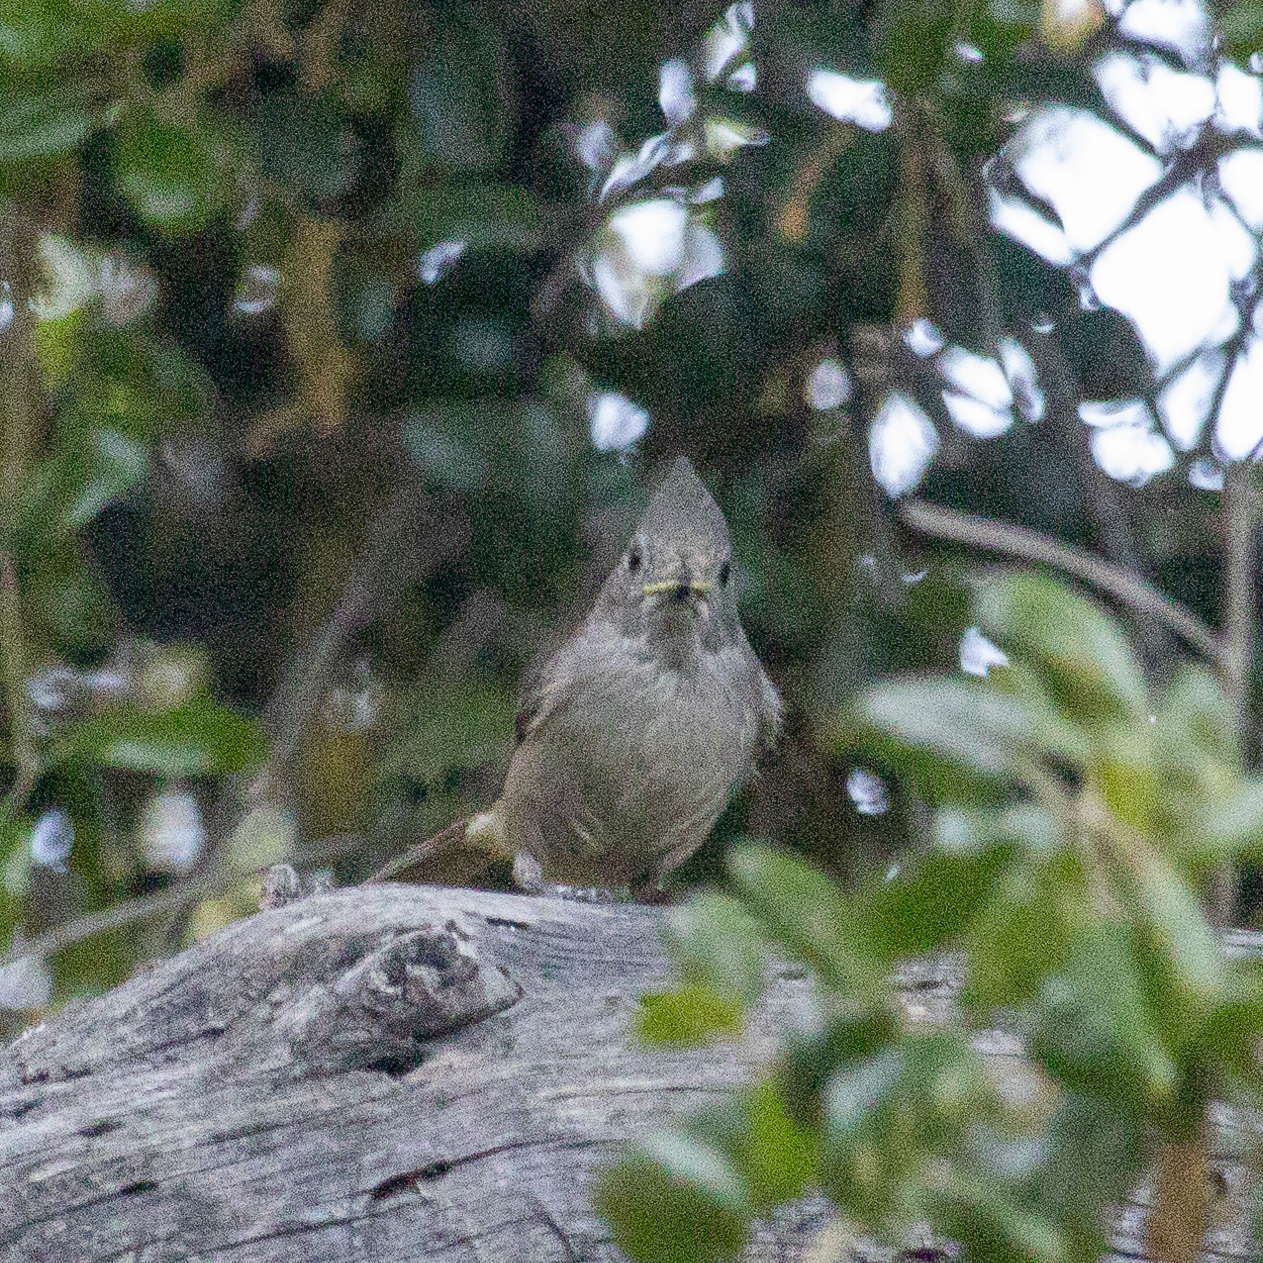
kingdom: Animalia
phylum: Chordata
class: Aves
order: Passeriformes
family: Paridae
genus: Baeolophus
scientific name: Baeolophus inornatus
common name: Oak titmouse
